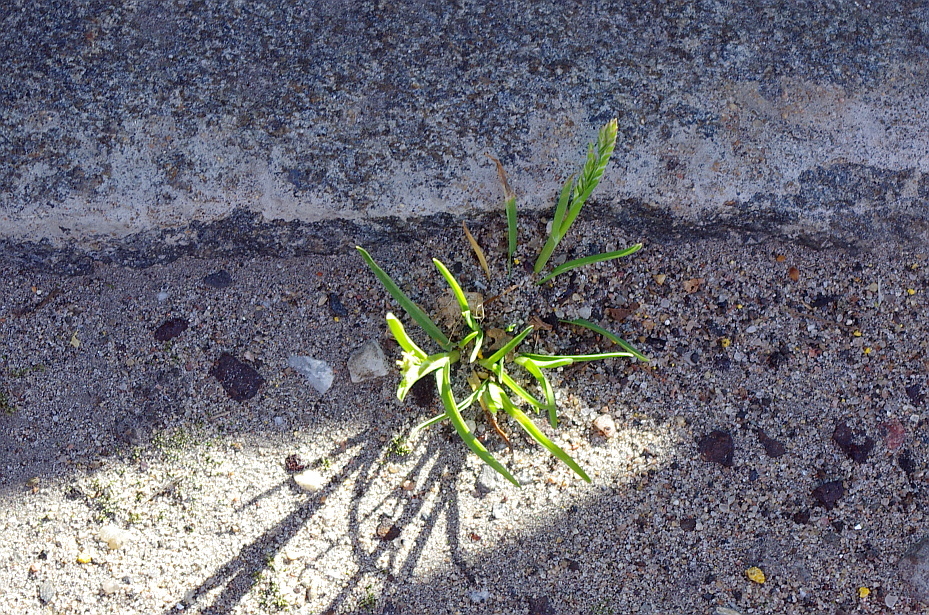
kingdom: Plantae
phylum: Tracheophyta
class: Liliopsida
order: Poales
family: Poaceae
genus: Poa
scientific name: Poa annua
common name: Annual bluegrass
